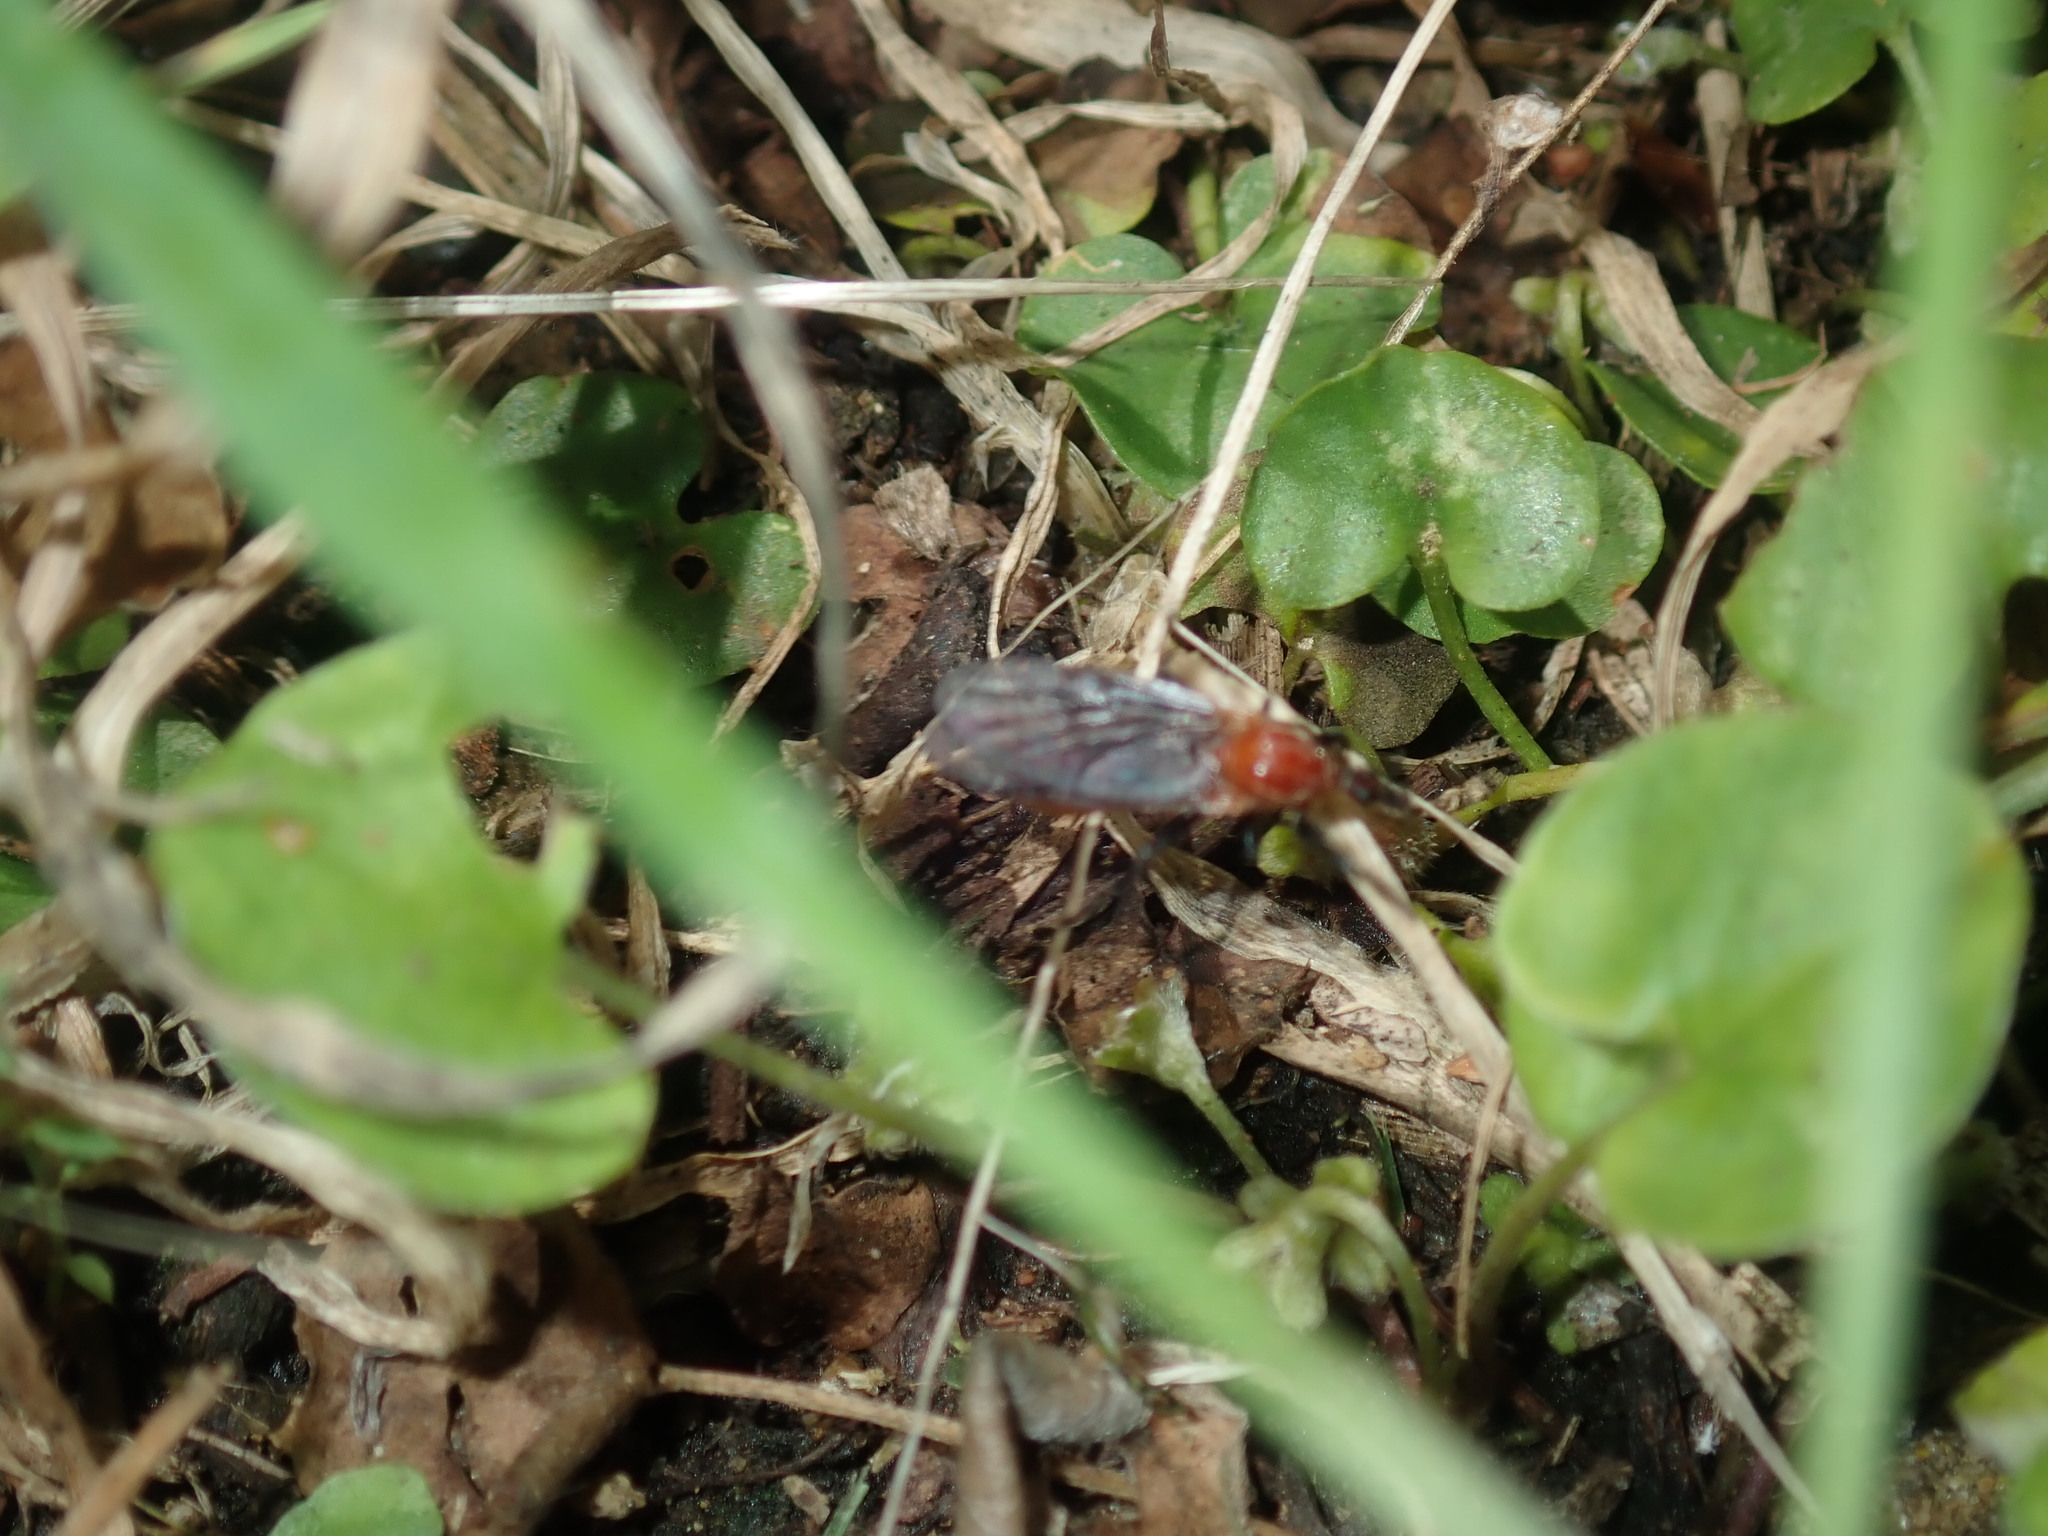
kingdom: Animalia
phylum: Arthropoda
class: Insecta
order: Diptera
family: Bibionidae
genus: Bibio
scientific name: Bibio imitator
